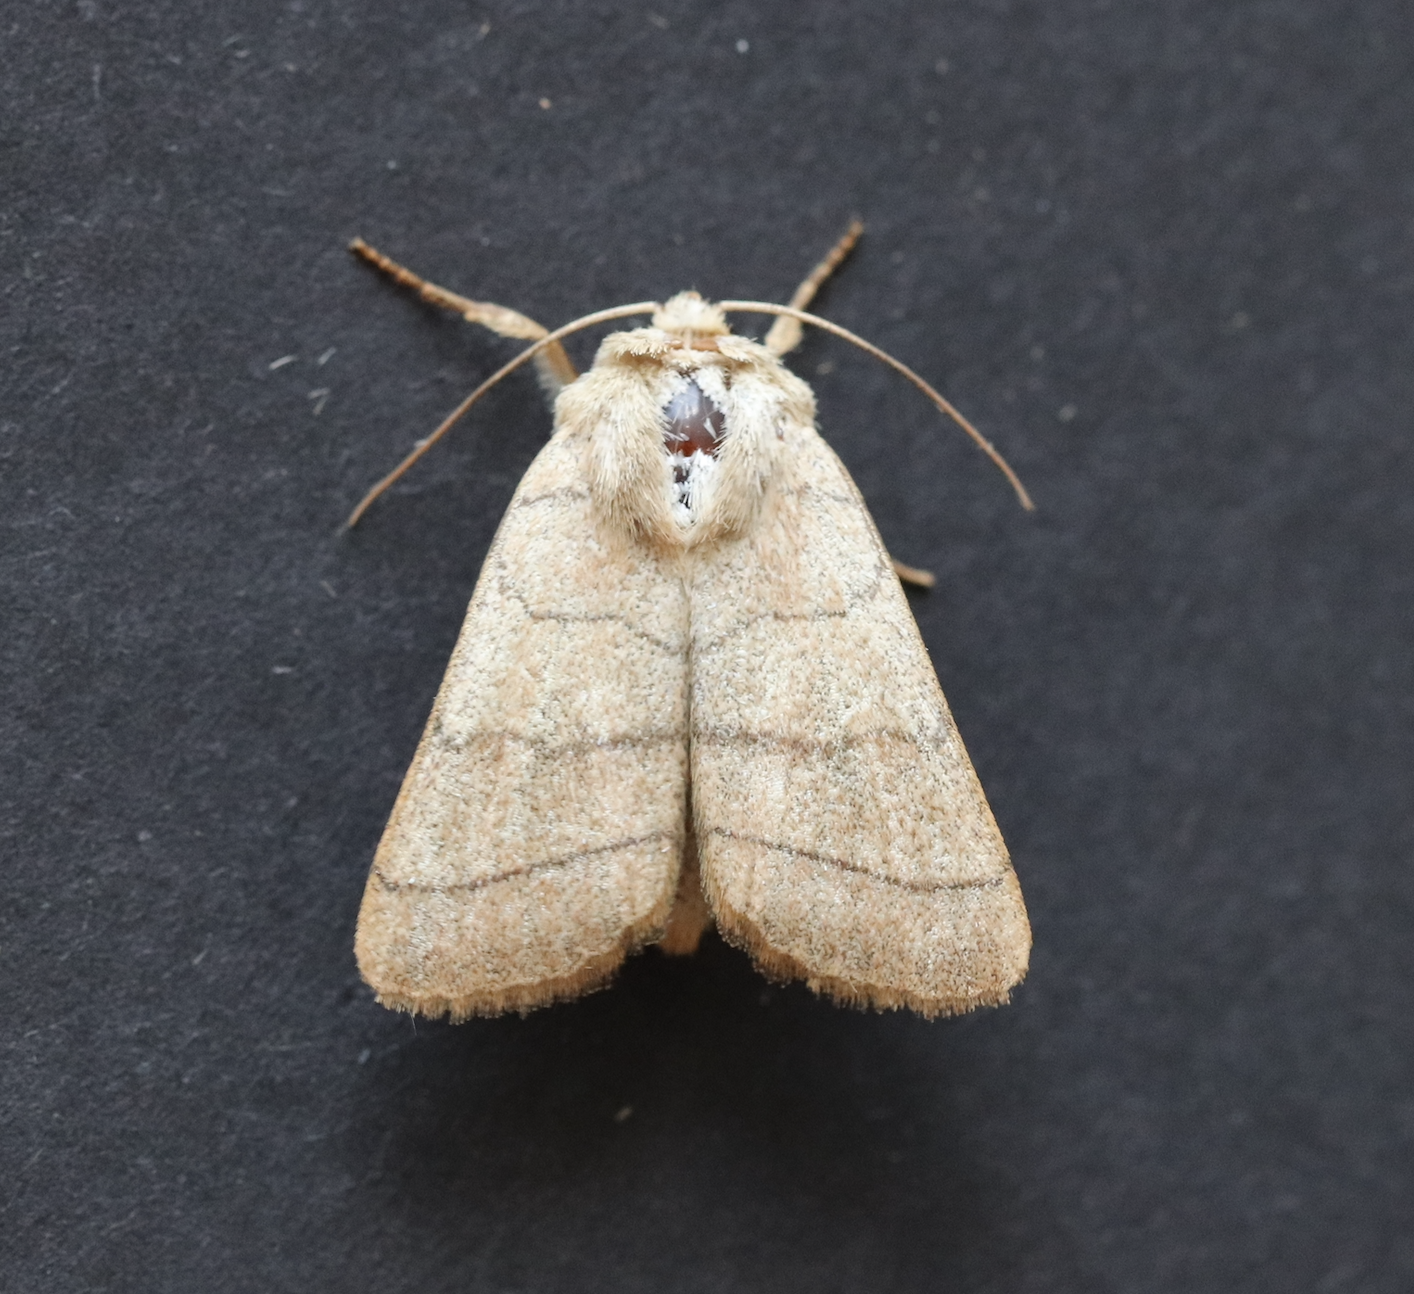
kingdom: Animalia
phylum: Arthropoda
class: Insecta
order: Lepidoptera
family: Noctuidae
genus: Charanyca
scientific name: Charanyca trigrammica
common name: Treble lines
